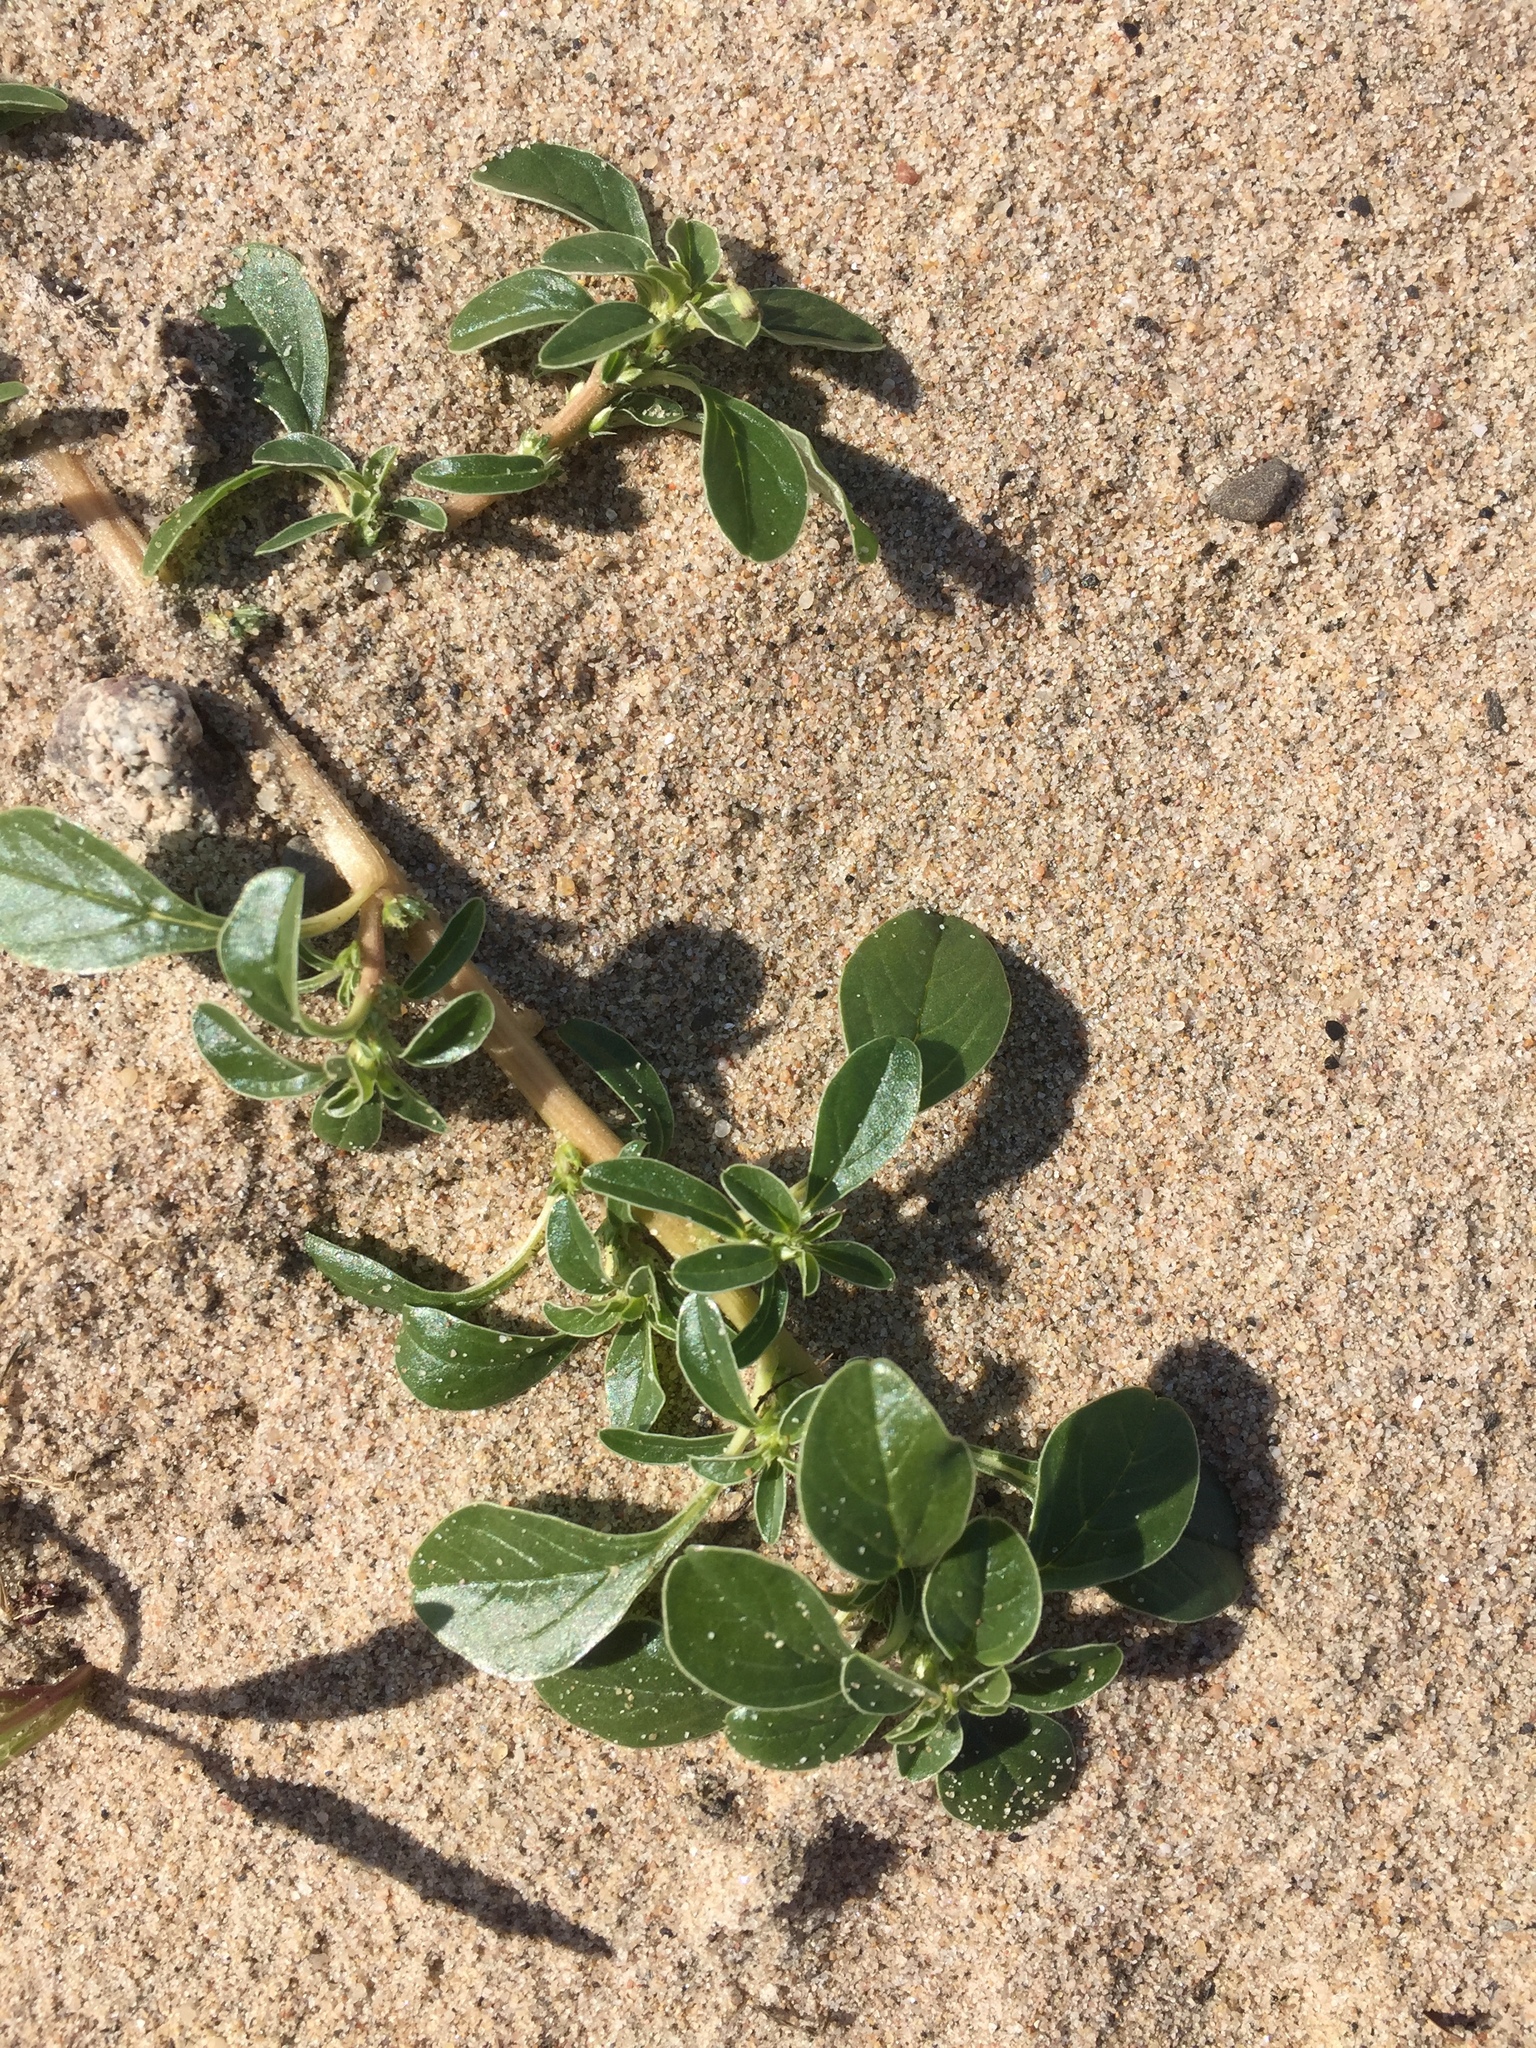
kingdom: Plantae
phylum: Tracheophyta
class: Magnoliopsida
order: Caryophyllales
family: Amaranthaceae
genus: Amaranthus
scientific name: Amaranthus blitoides
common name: Prostrate pigweed
